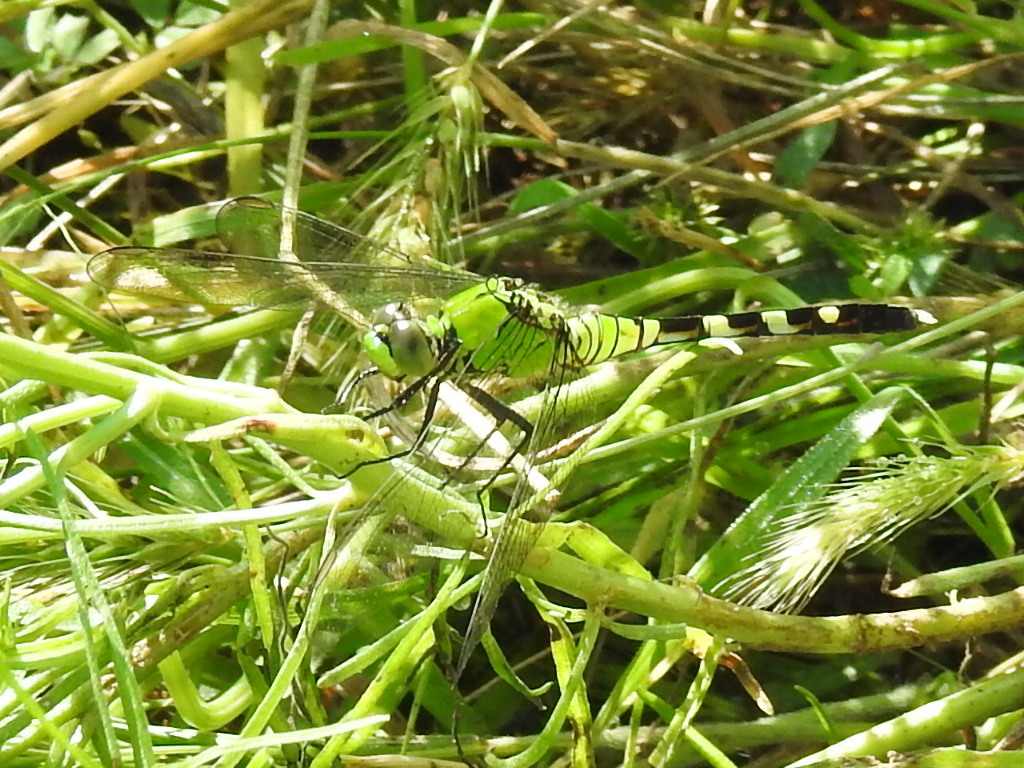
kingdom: Animalia
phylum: Arthropoda
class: Insecta
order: Odonata
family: Libellulidae
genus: Erythemis
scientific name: Erythemis simplicicollis
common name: Eastern pondhawk
